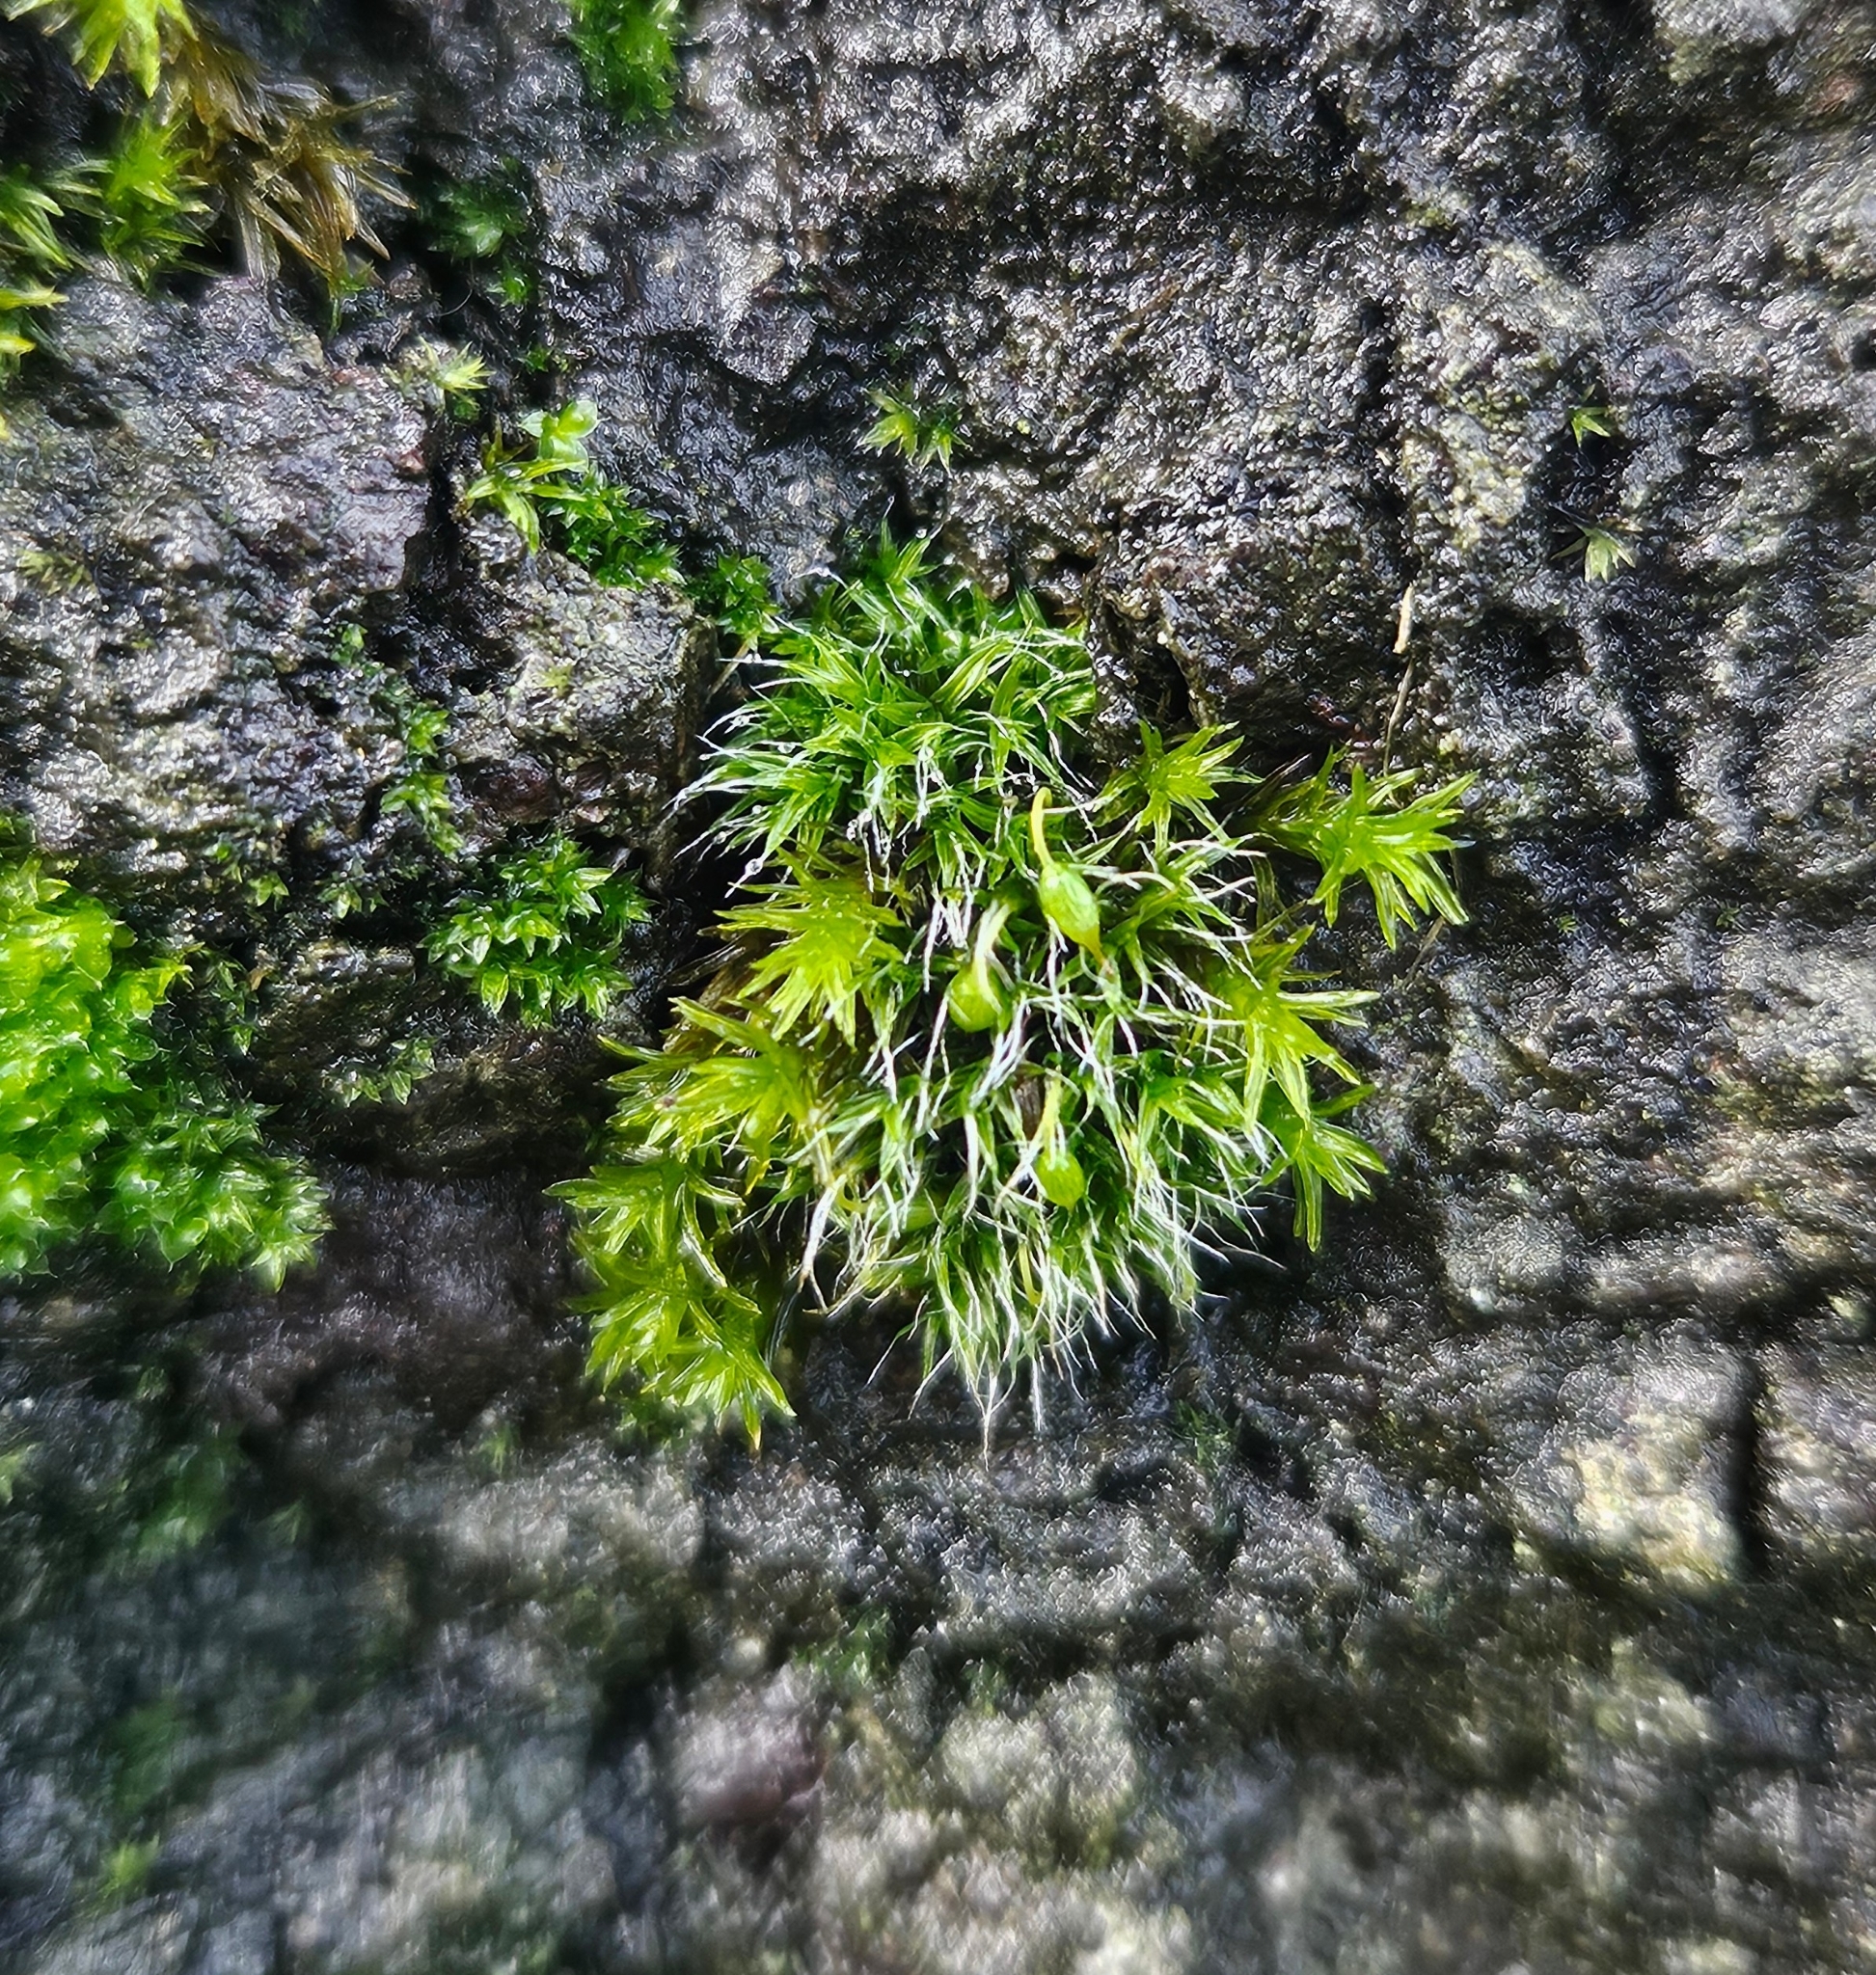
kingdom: Plantae
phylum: Bryophyta
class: Bryopsida
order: Grimmiales
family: Grimmiaceae
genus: Grimmia
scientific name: Grimmia pulvinata
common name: Grey-cushioned grimmia
